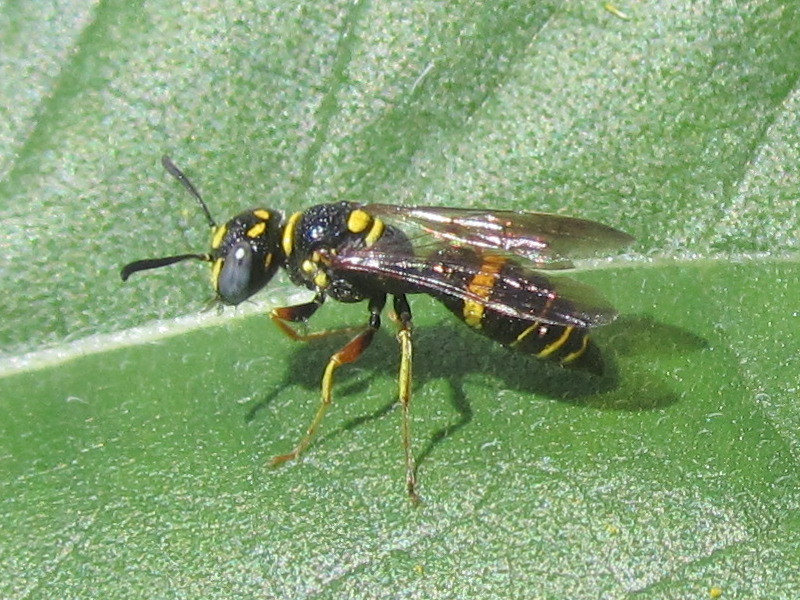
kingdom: Animalia
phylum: Arthropoda
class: Insecta
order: Hymenoptera
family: Crabronidae
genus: Philanthus
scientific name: Philanthus gibbosus
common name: Humped beewolf
